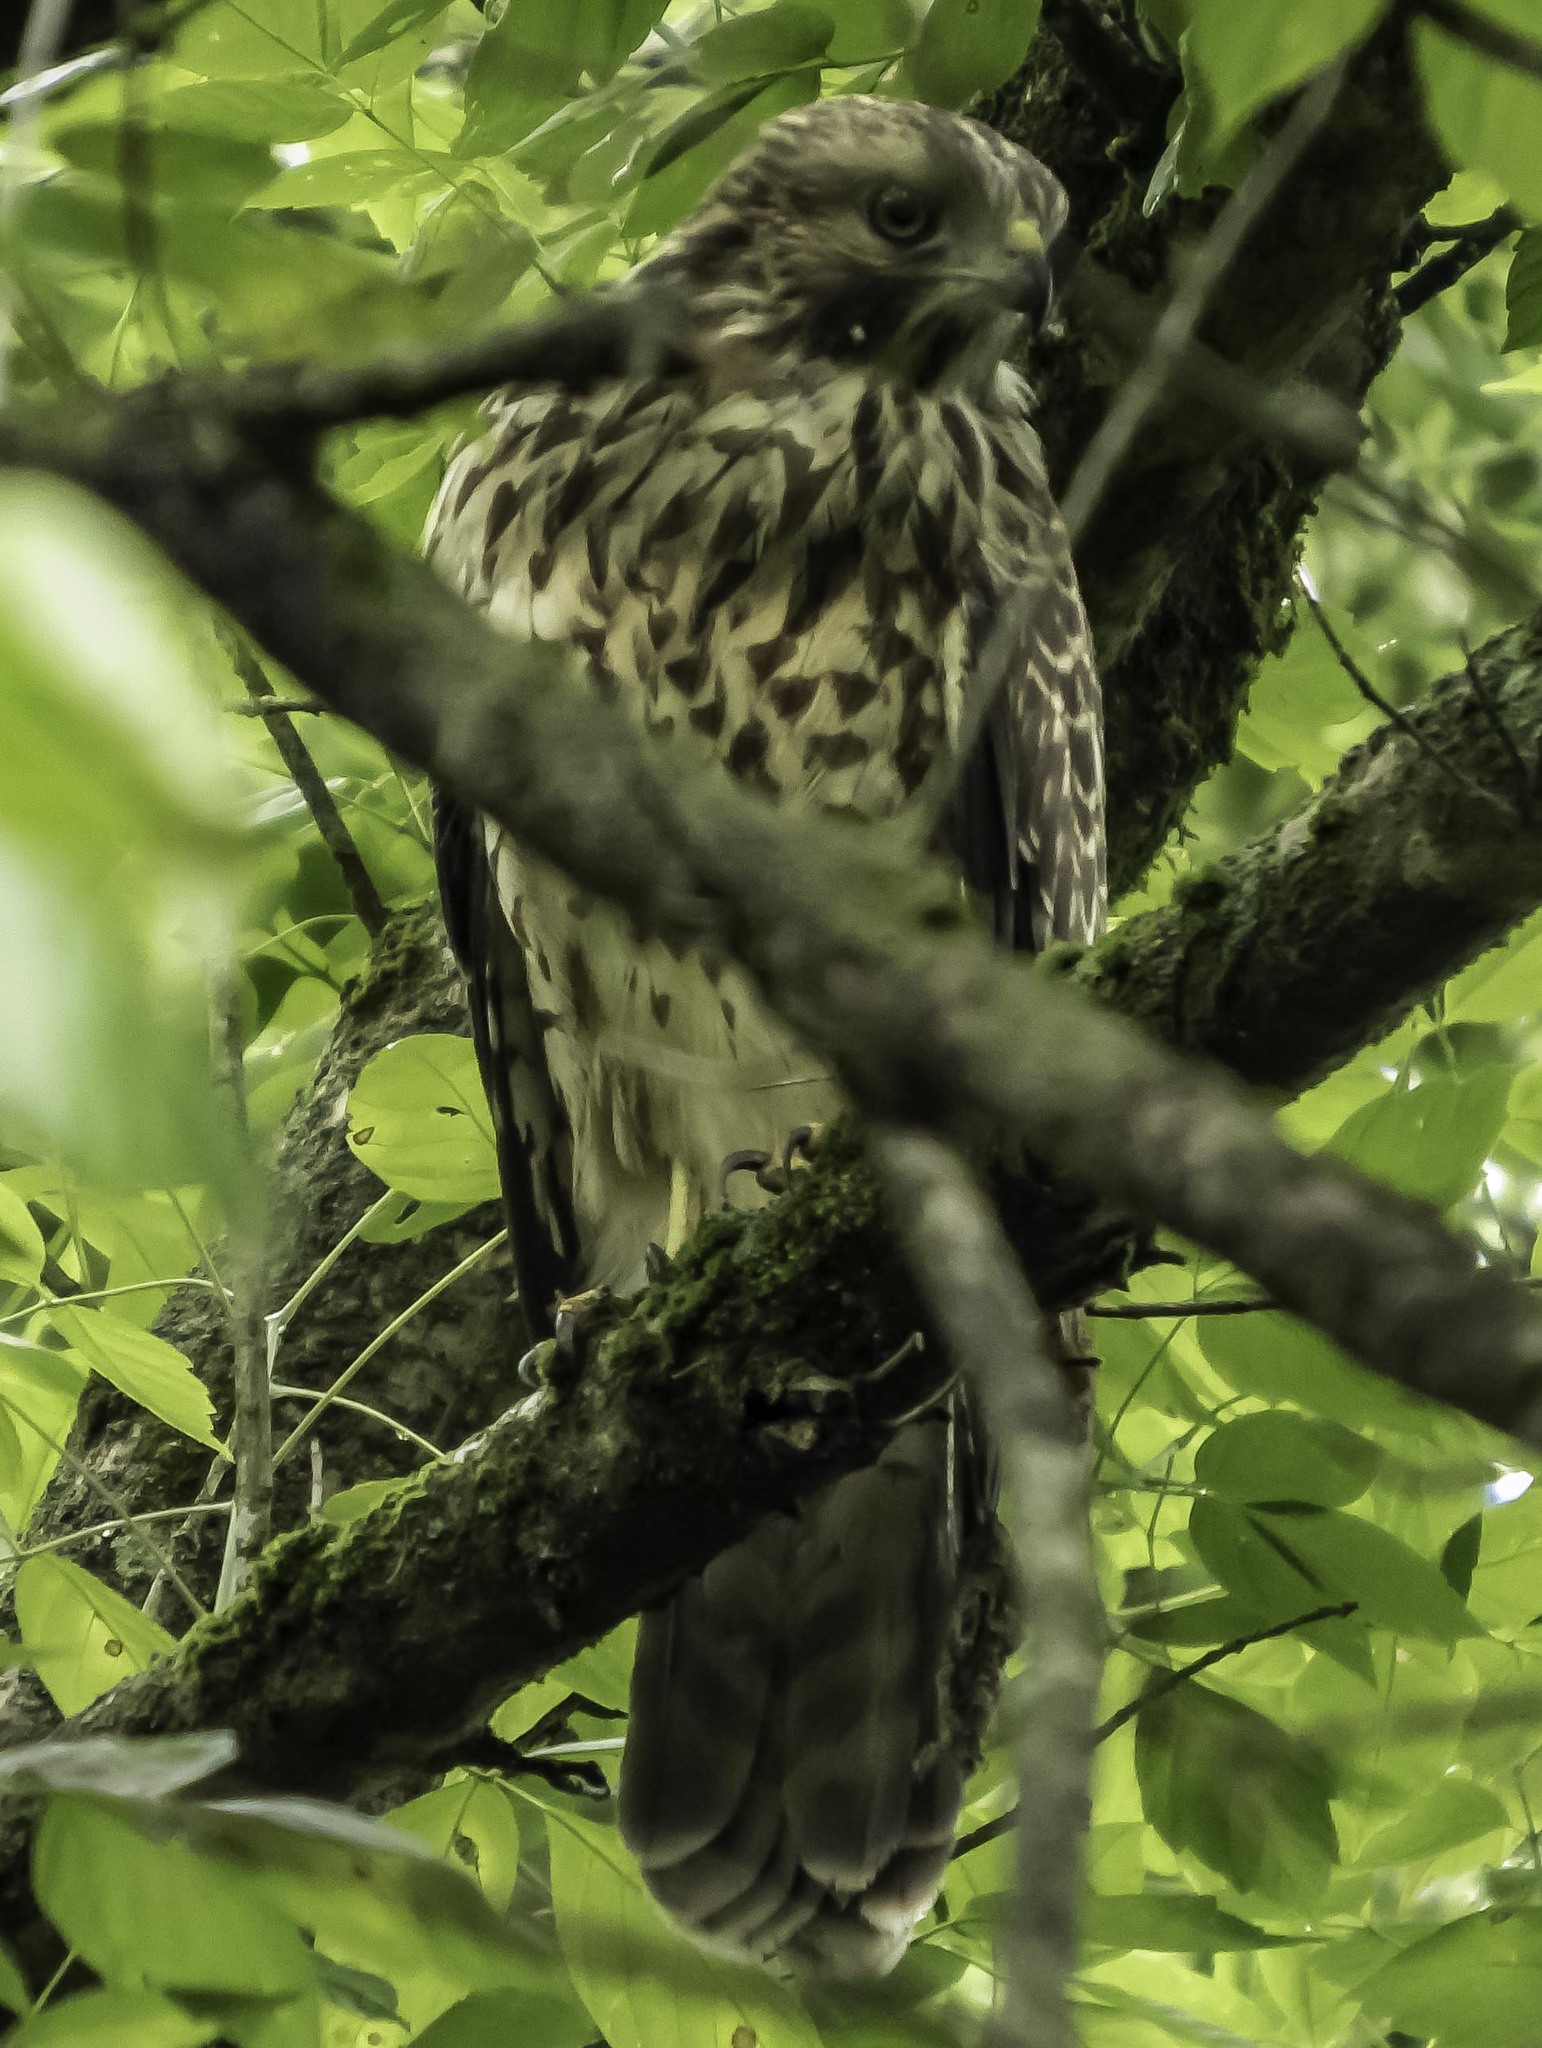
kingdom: Animalia
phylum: Chordata
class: Aves
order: Accipitriformes
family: Accipitridae
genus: Buteo
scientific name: Buteo lineatus
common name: Red-shouldered hawk
